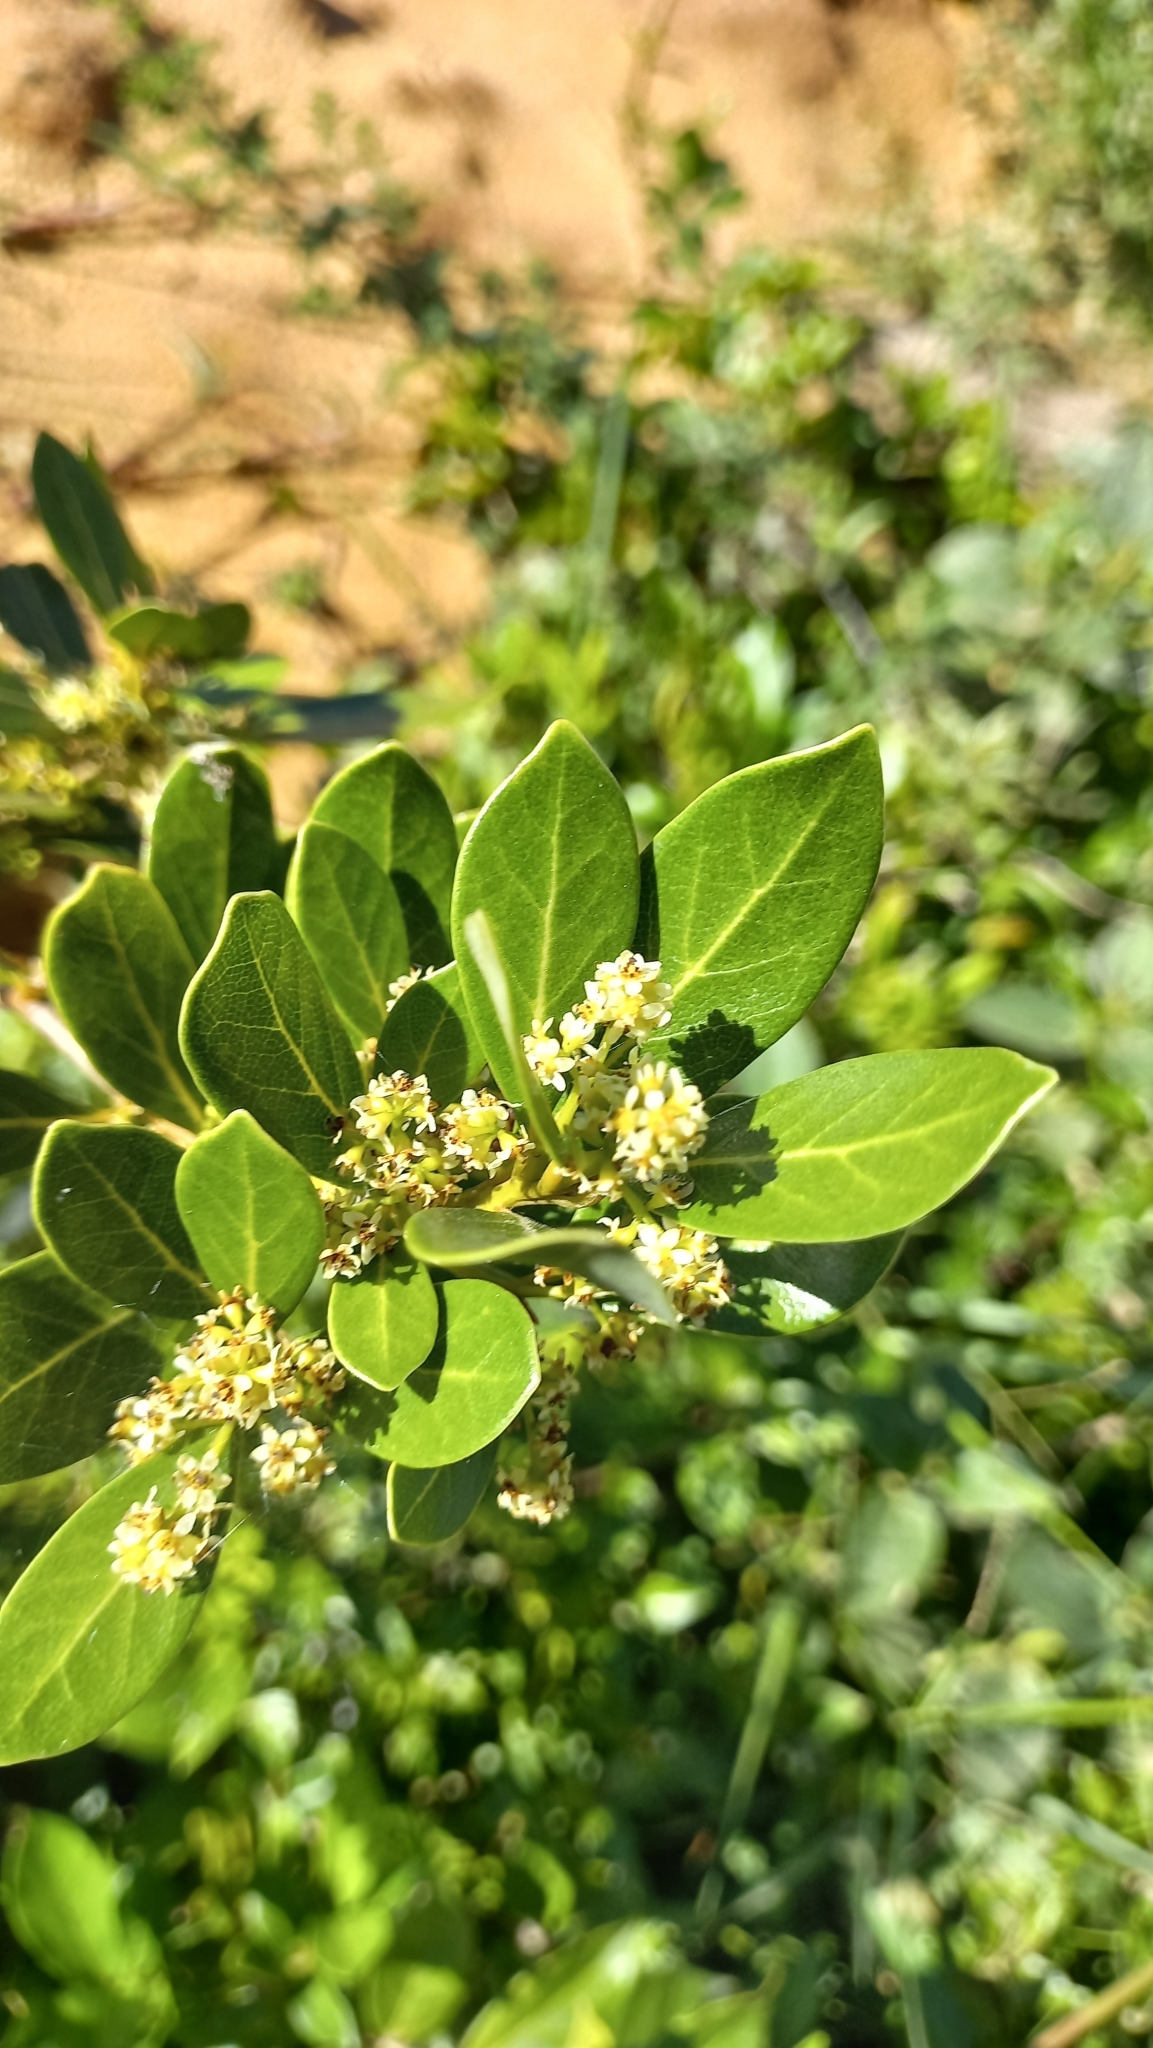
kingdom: Plantae
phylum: Tracheophyta
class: Magnoliopsida
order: Laurales
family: Lauraceae
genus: Mespilodaphne
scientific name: Mespilodaphne pulchella
